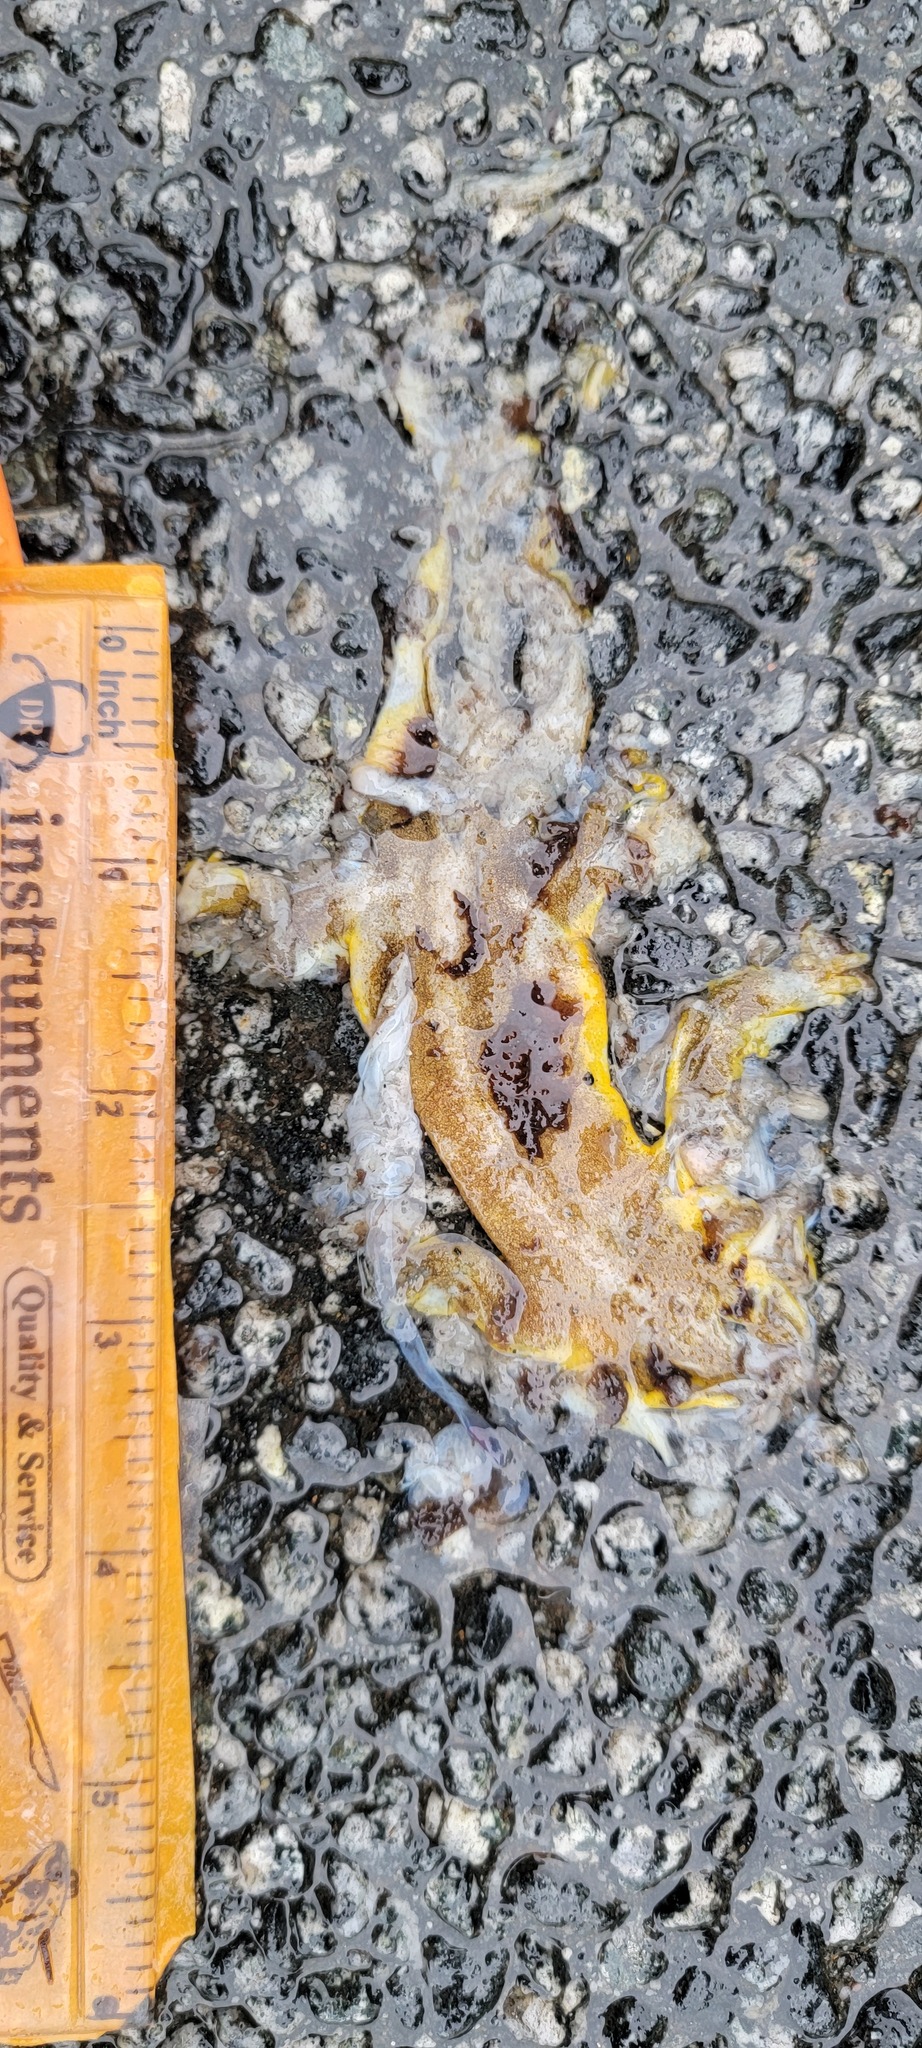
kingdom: Animalia
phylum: Chordata
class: Amphibia
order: Caudata
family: Salamandridae
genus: Taricha
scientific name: Taricha
